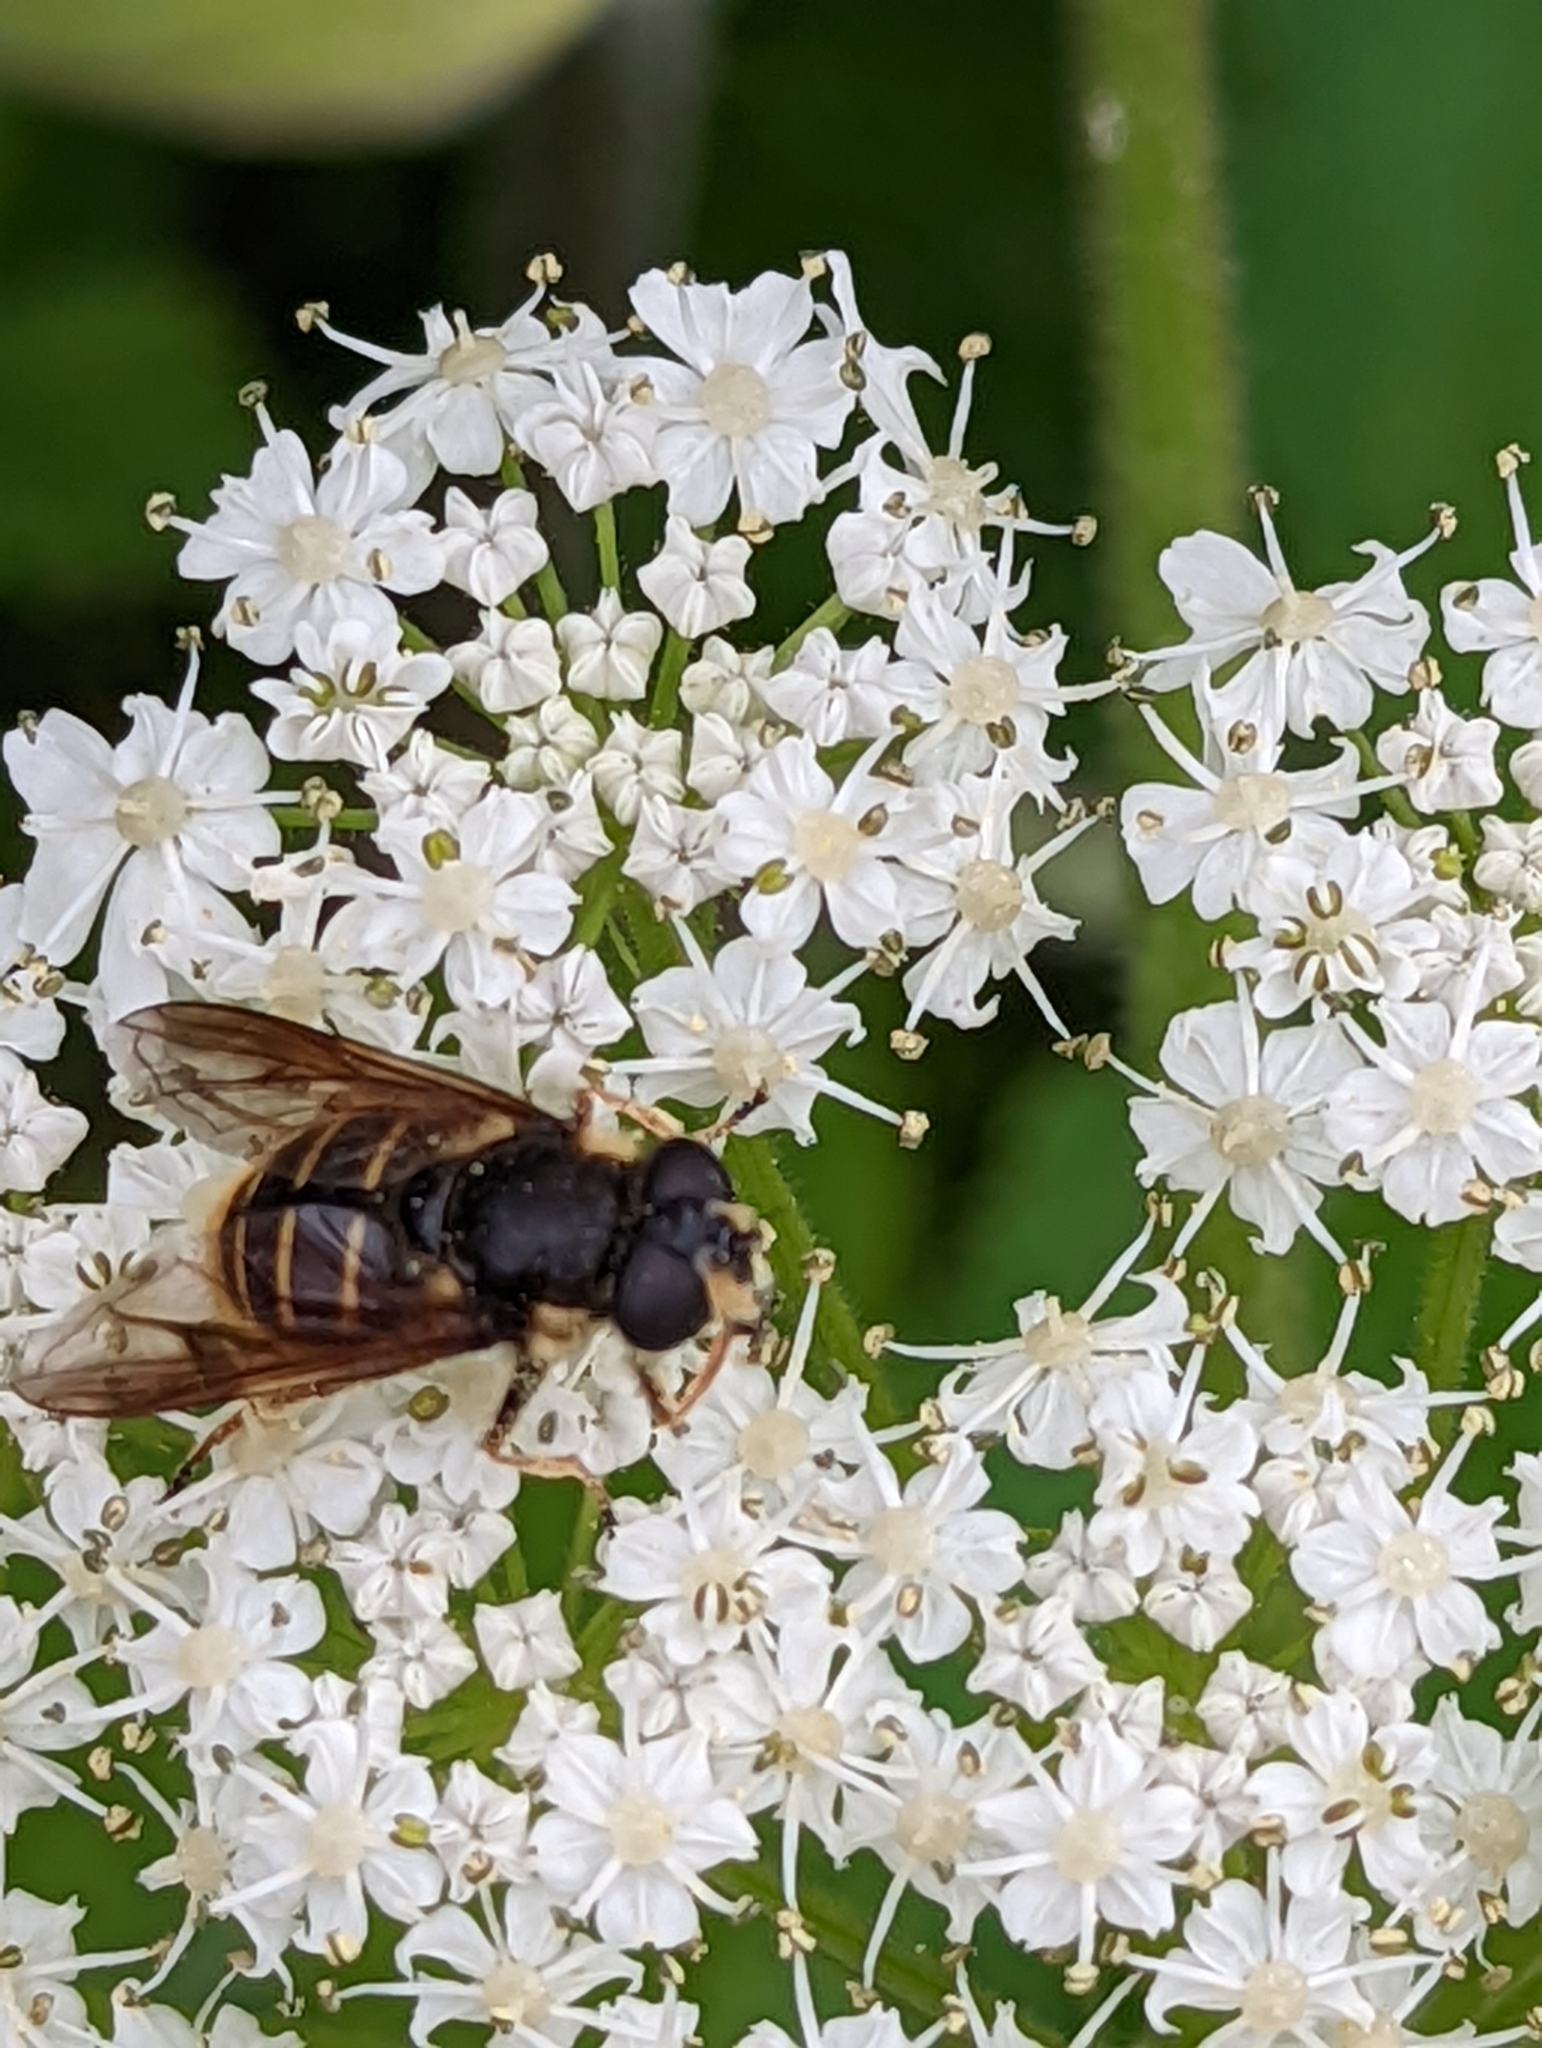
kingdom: Animalia
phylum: Arthropoda
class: Insecta
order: Diptera
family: Syrphidae
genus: Sericomyia
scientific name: Sericomyia chalcopyga
